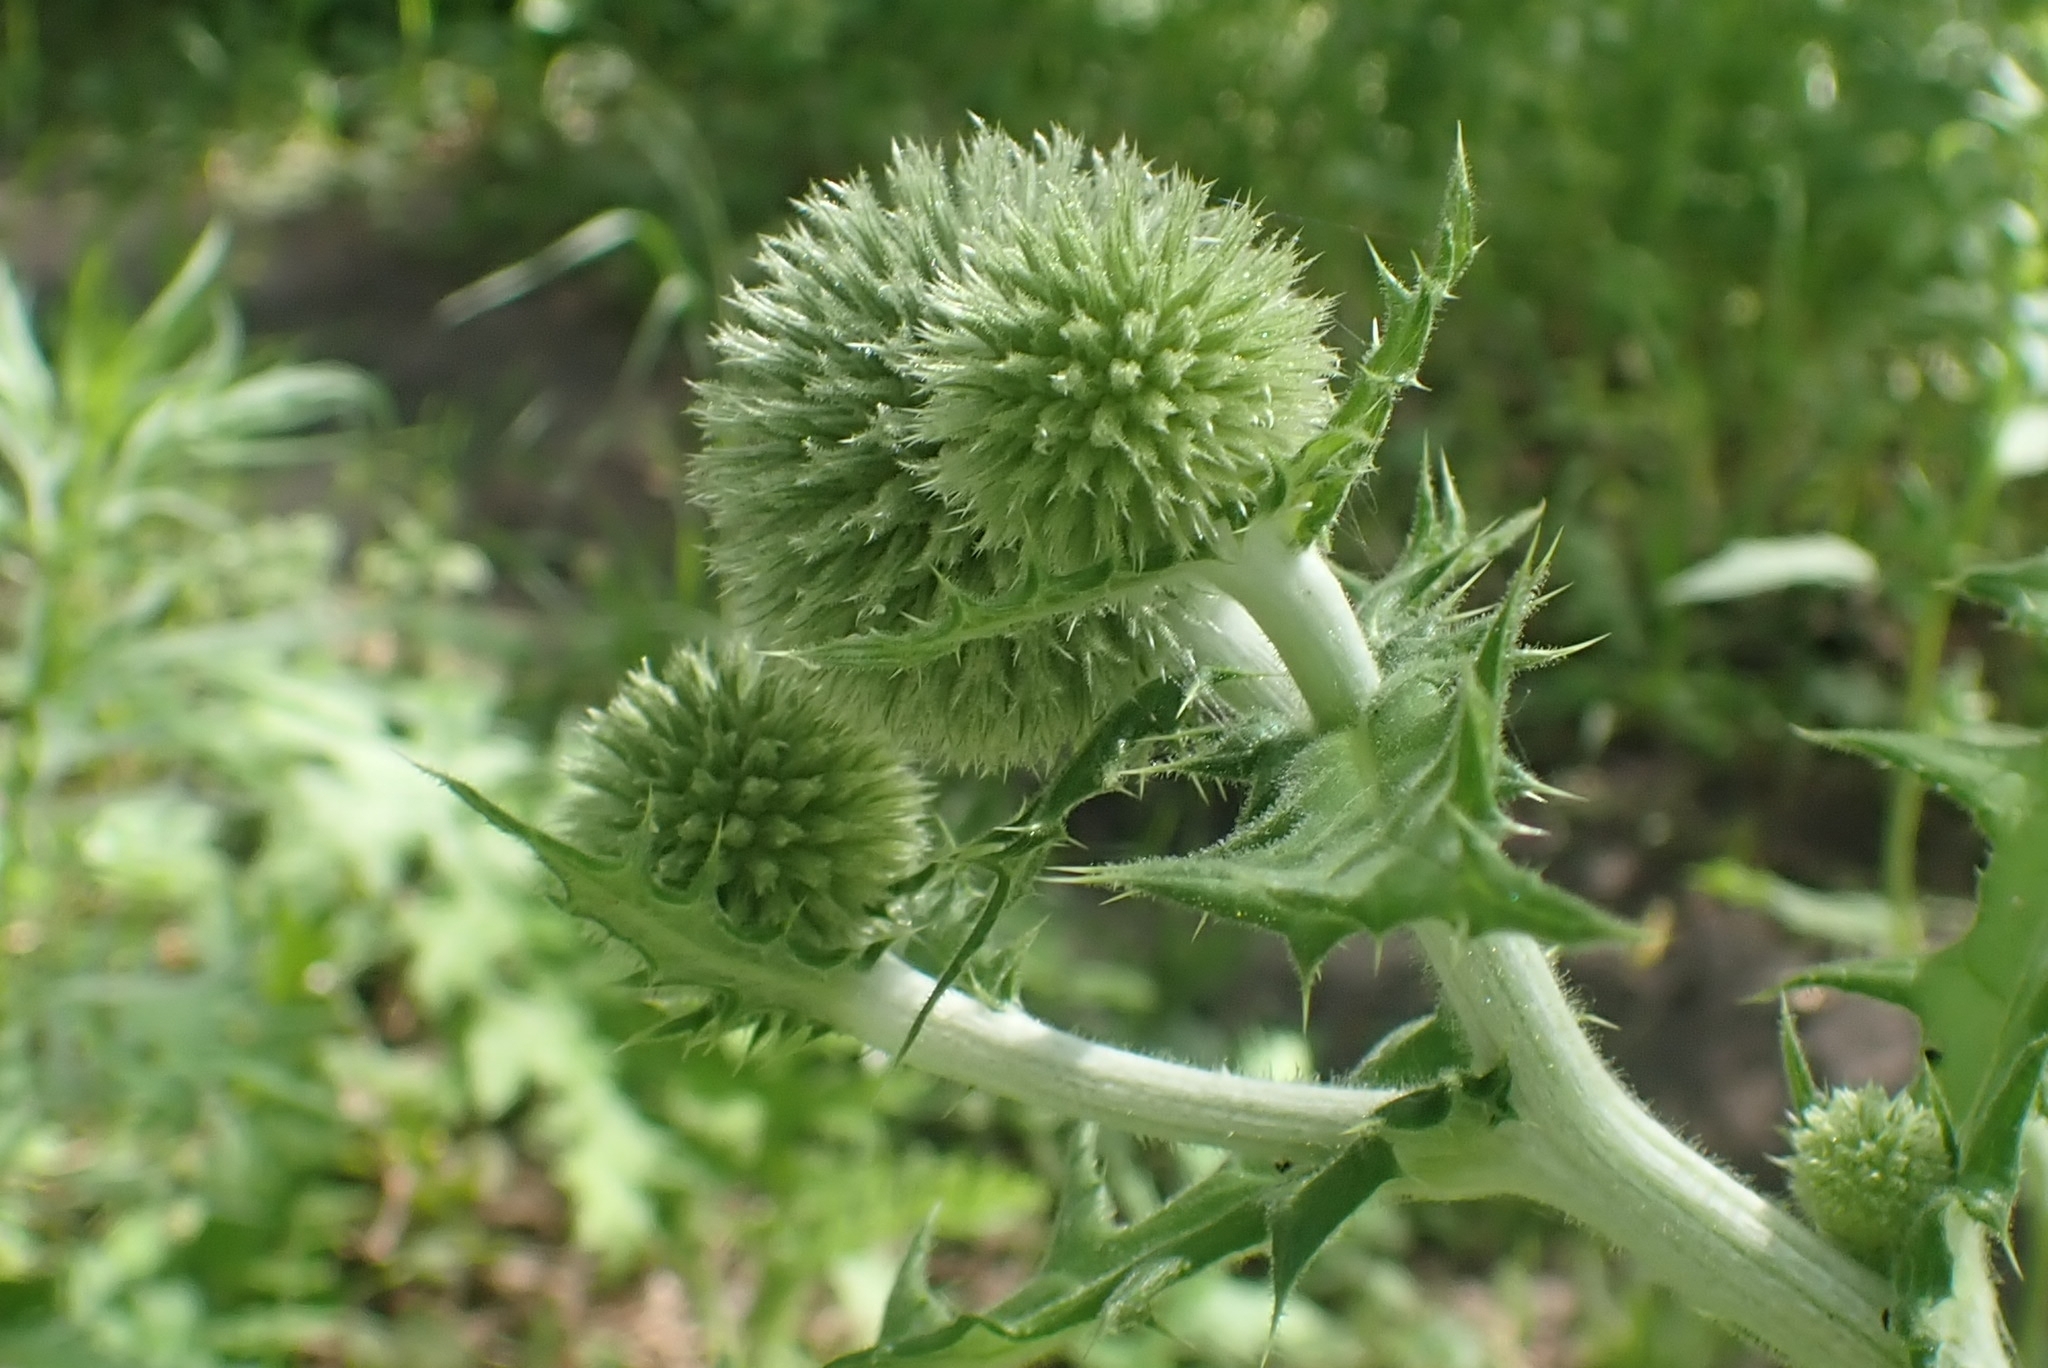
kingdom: Plantae
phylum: Tracheophyta
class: Magnoliopsida
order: Asterales
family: Asteraceae
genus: Echinops
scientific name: Echinops sphaerocephalus
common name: Glandular globe-thistle
